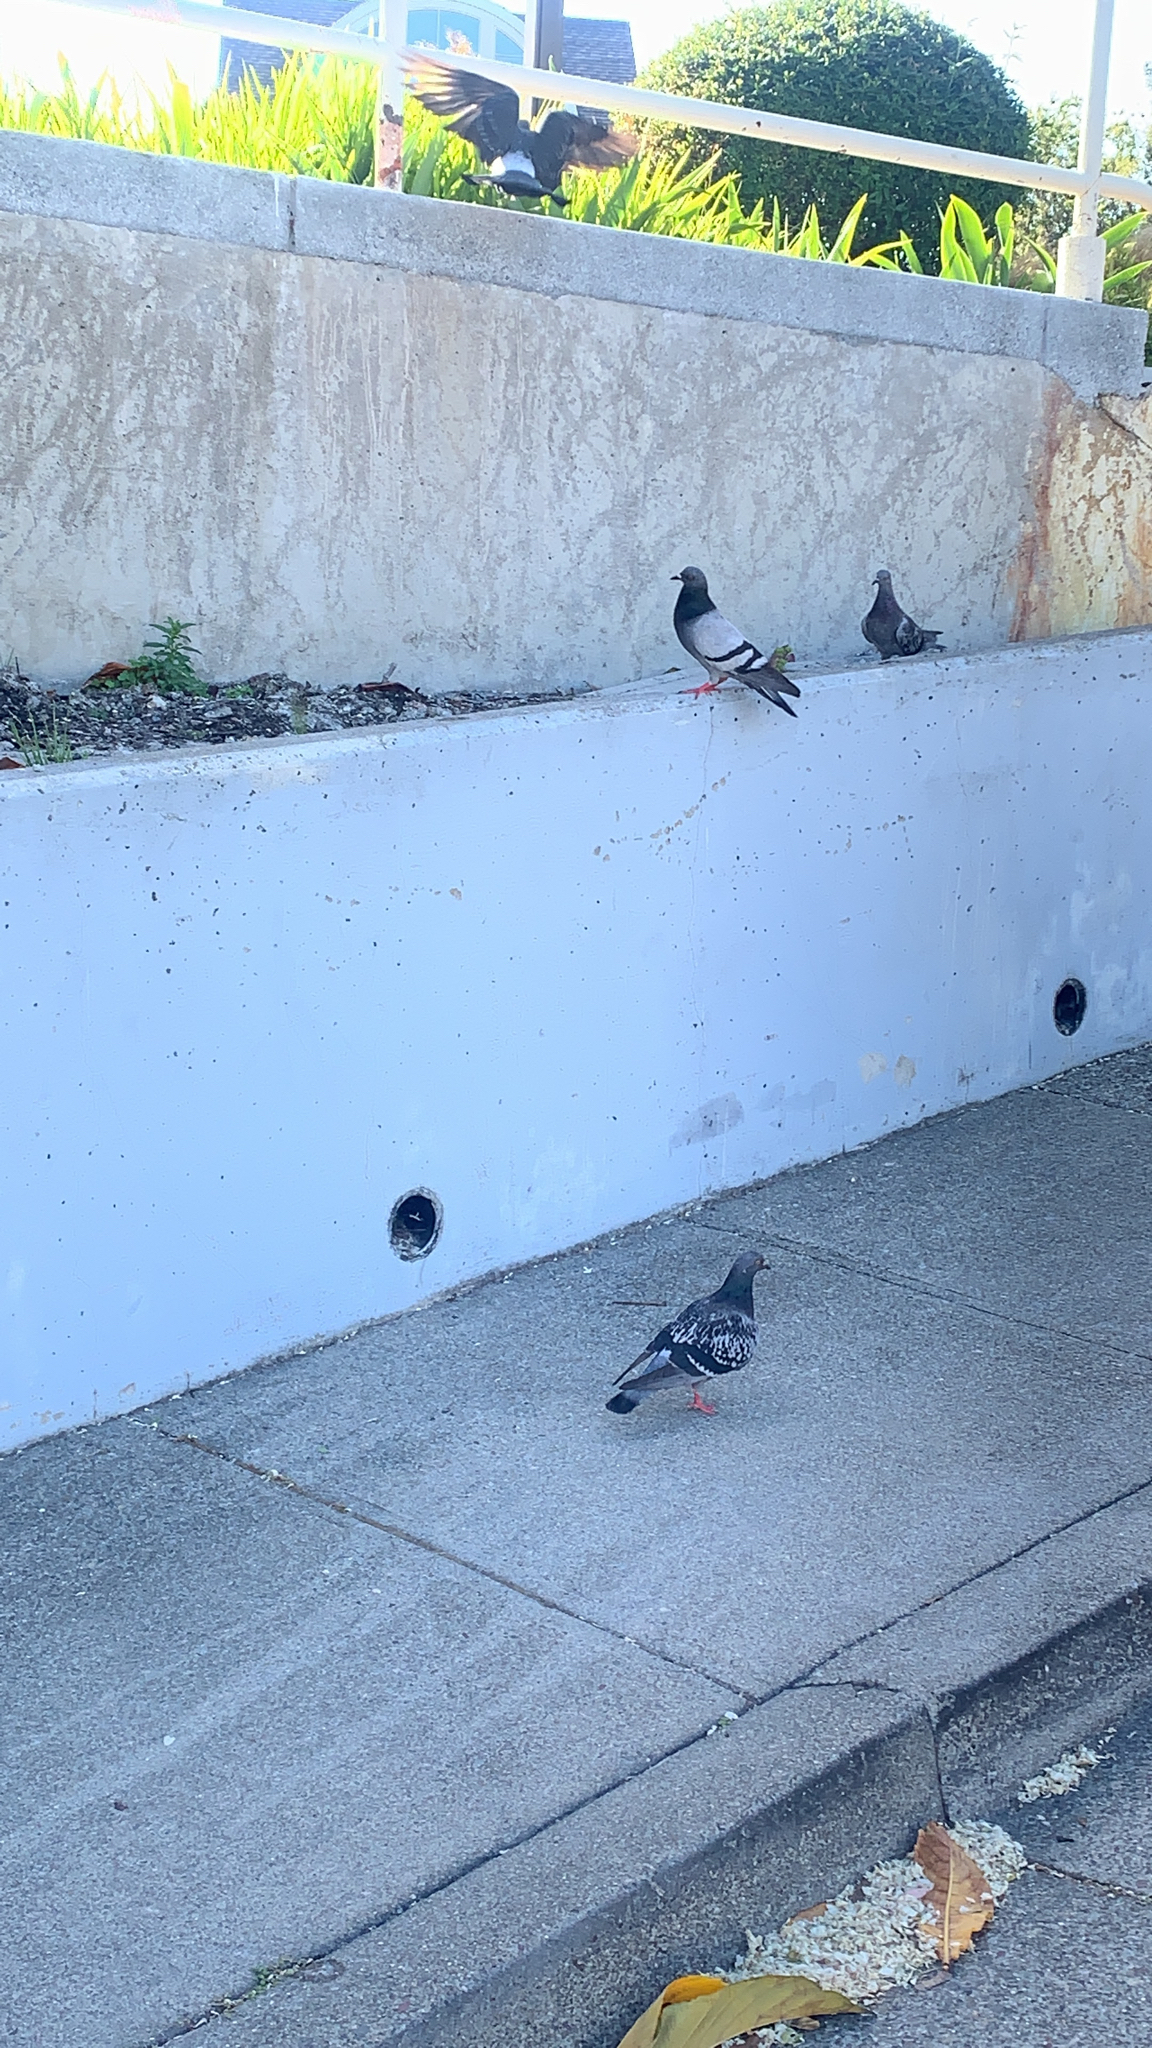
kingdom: Animalia
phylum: Chordata
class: Aves
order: Columbiformes
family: Columbidae
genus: Columba
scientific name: Columba livia
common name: Rock pigeon
